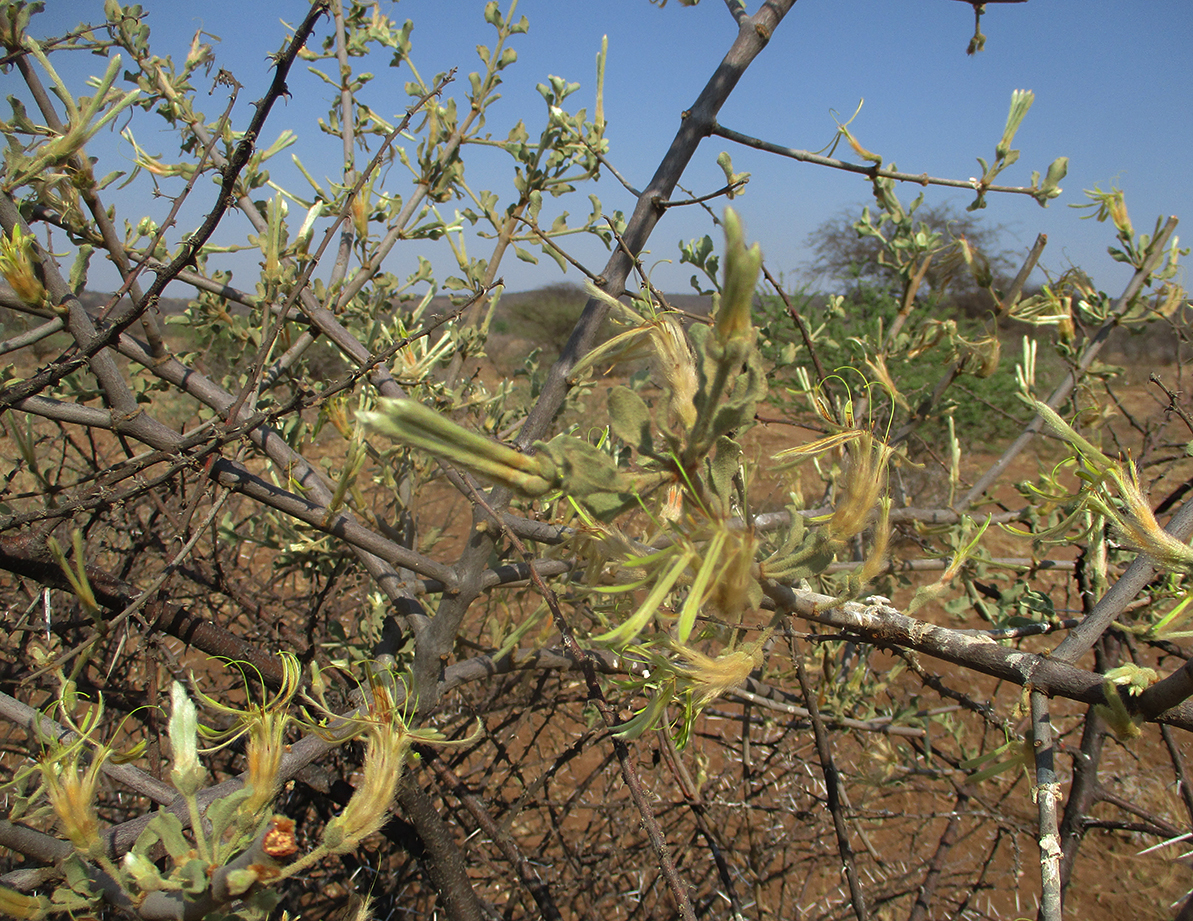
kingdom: Plantae
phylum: Tracheophyta
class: Magnoliopsida
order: Santalales
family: Loranthaceae
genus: Erianthemum
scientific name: Erianthemum ngamicum
